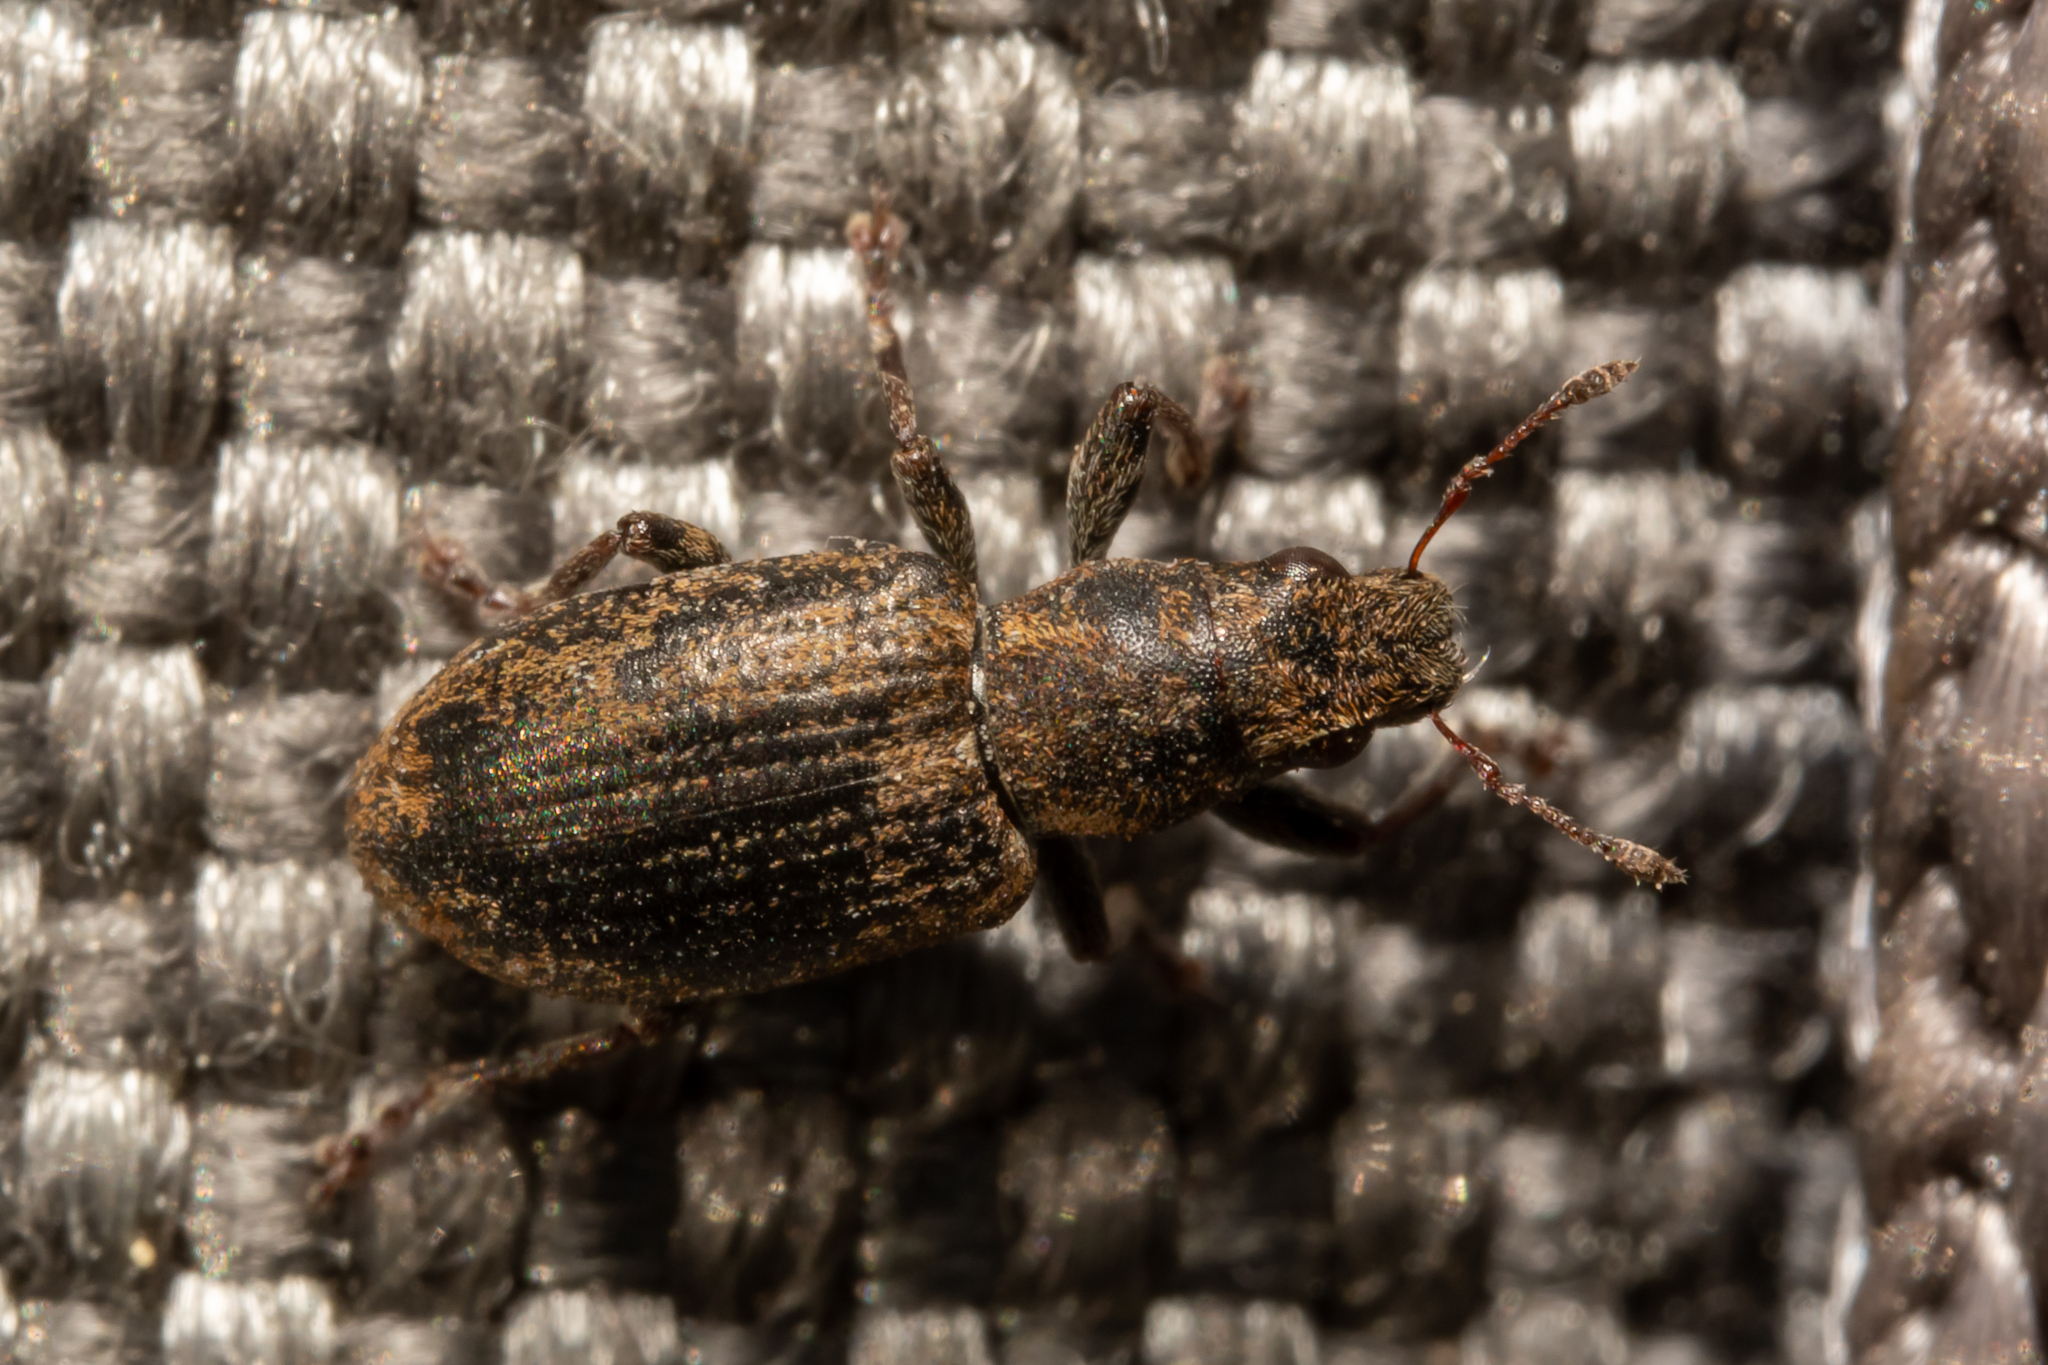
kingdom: Animalia
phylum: Arthropoda
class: Insecta
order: Coleoptera
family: Curculionidae
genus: Sitona
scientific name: Sitona obsoletus
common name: Weevil
